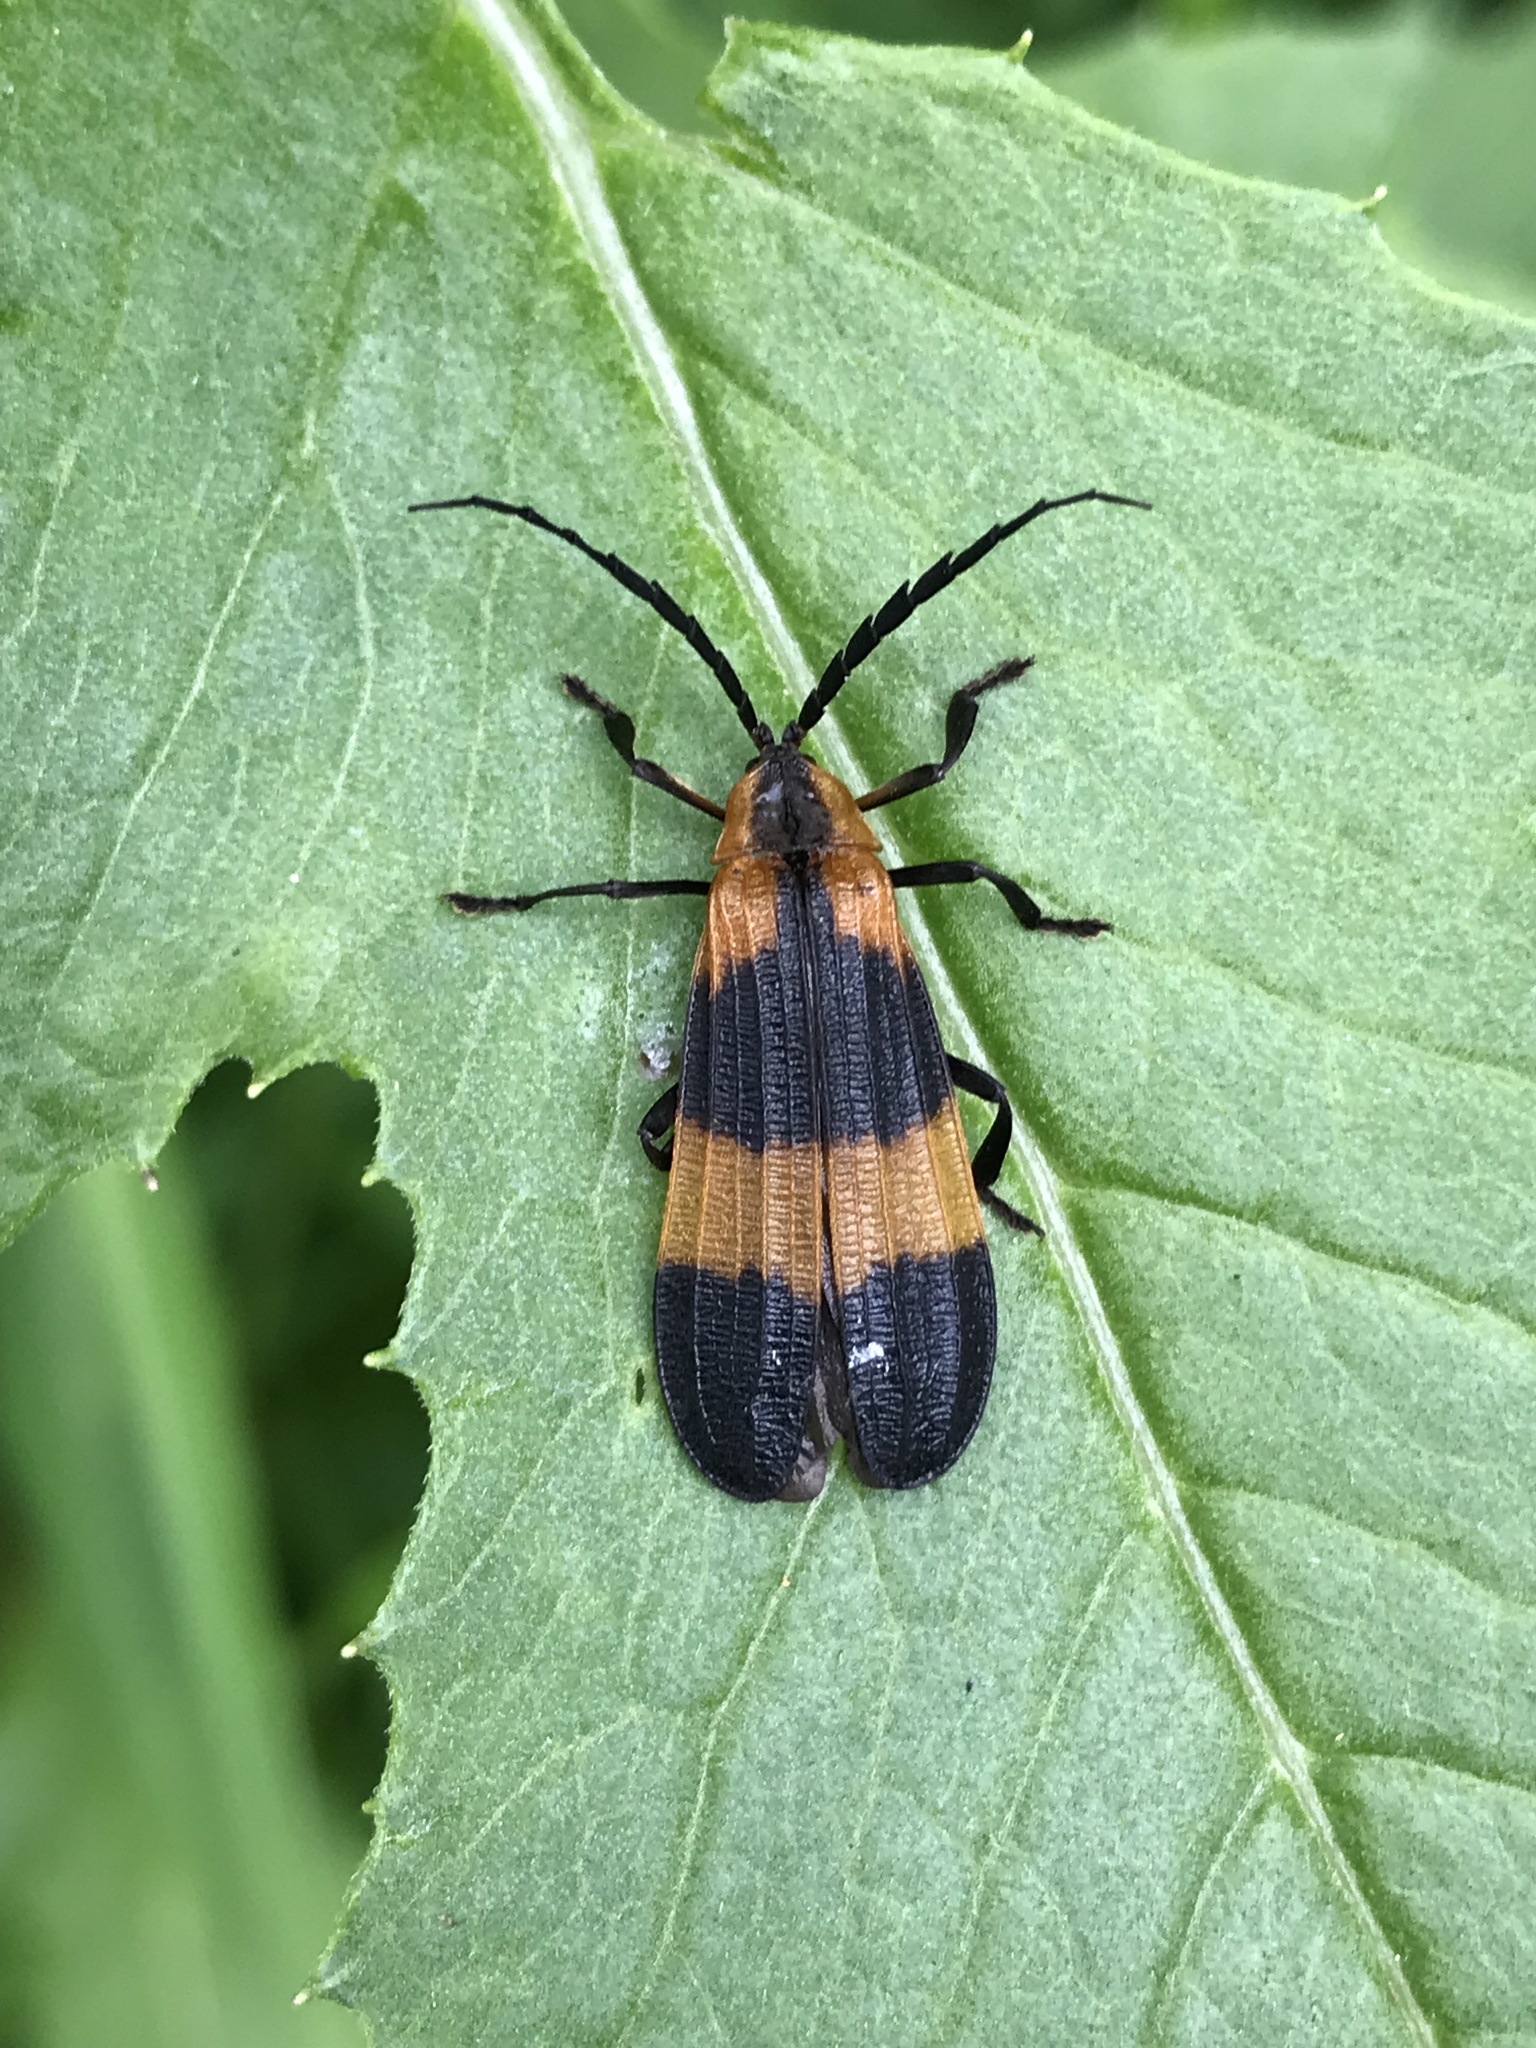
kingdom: Animalia
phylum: Arthropoda
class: Insecta
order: Coleoptera
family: Lycidae
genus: Calopteron
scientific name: Calopteron reticulatum
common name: Banded net-winged beetle
